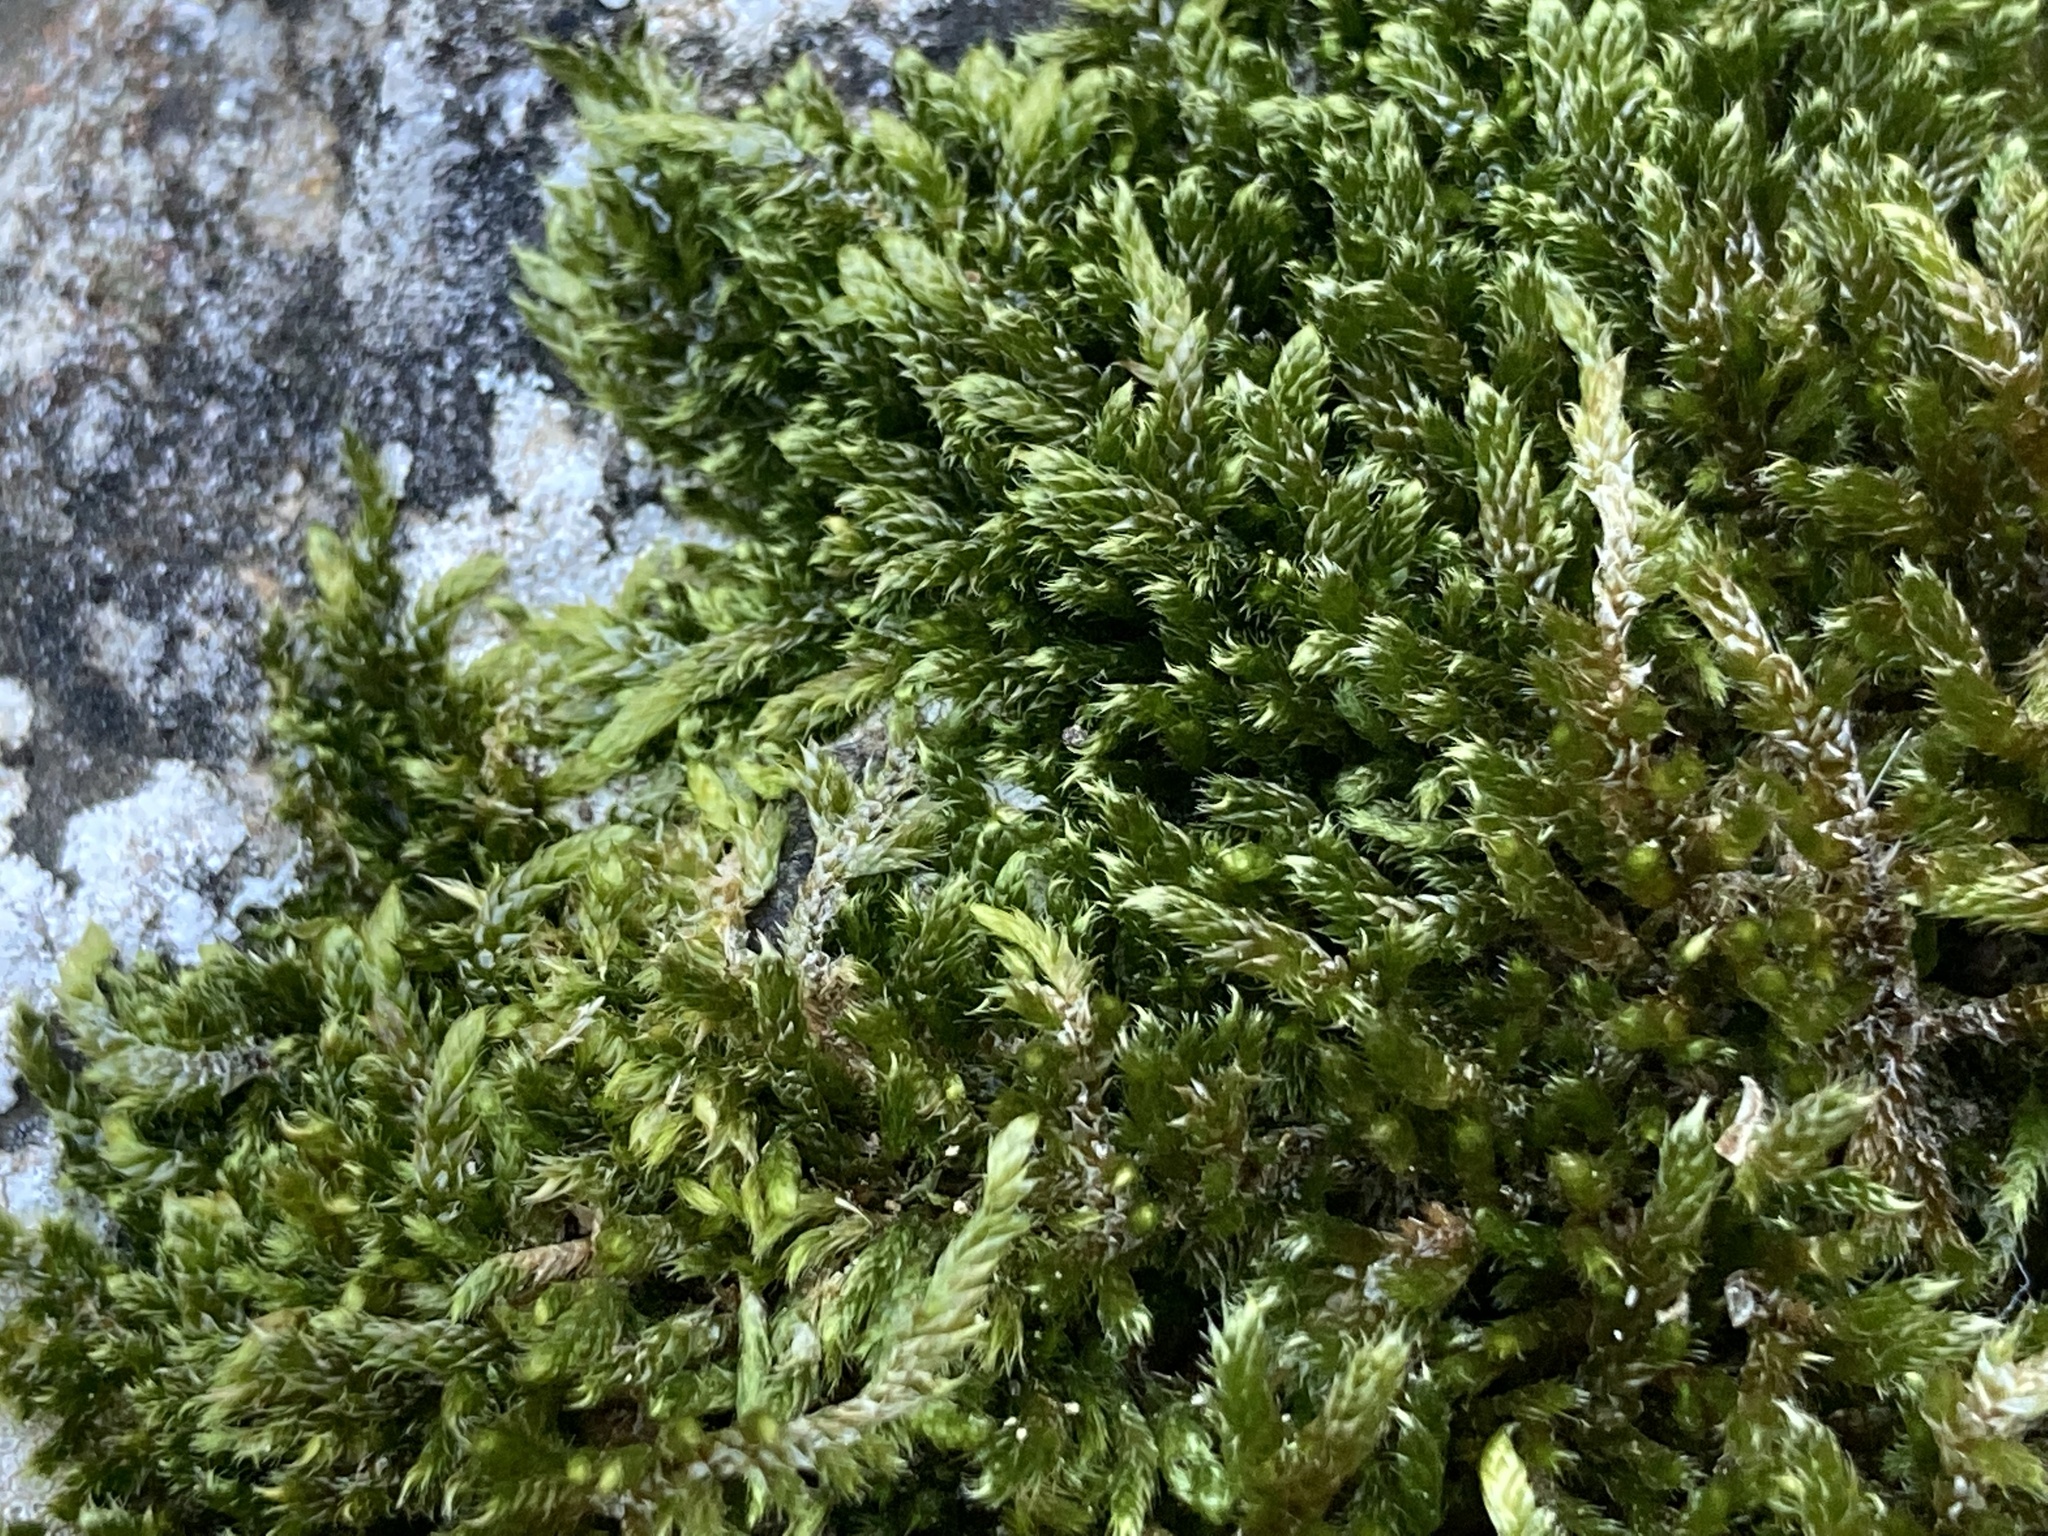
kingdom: Plantae
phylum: Bryophyta
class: Bryopsida
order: Hypnales
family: Hypnaceae
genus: Hypnum
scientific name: Hypnum cupressiforme
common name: Cypress-leaved plait-moss
